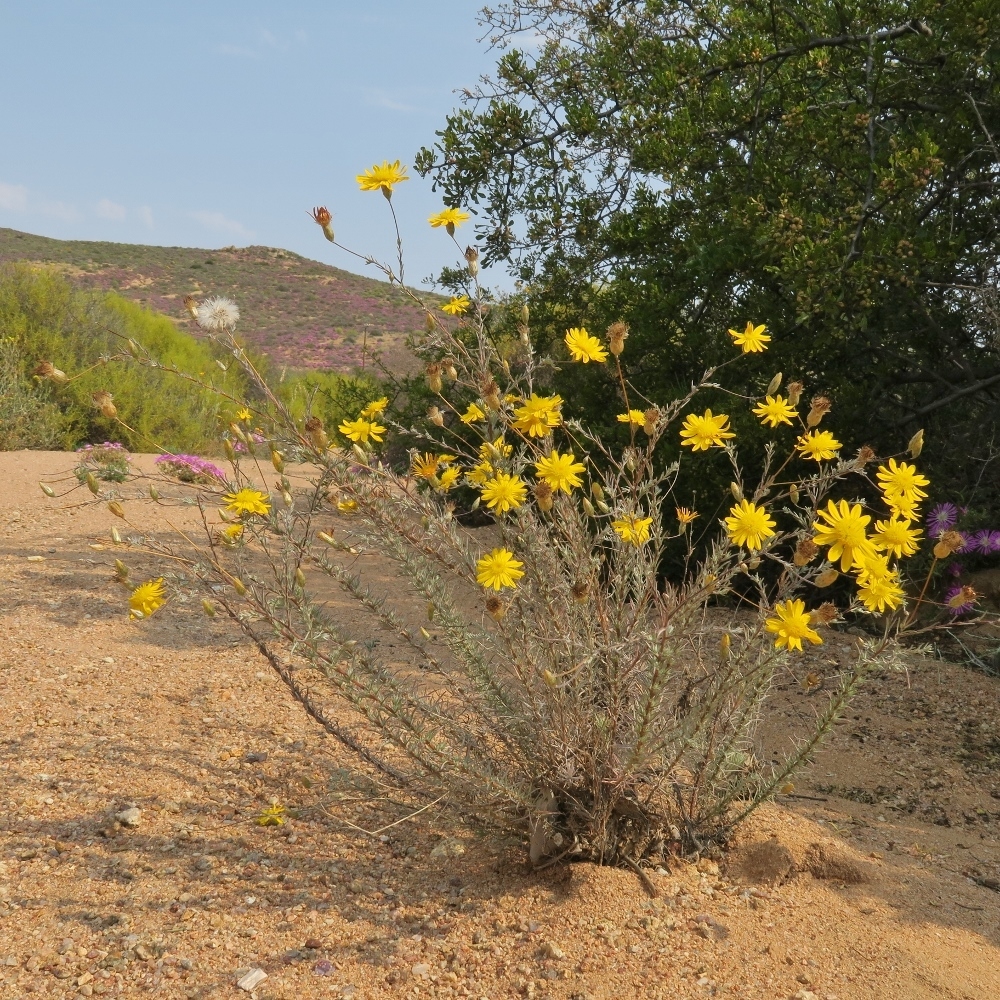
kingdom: Plantae
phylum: Tracheophyta
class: Magnoliopsida
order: Asterales
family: Asteraceae
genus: Leysera
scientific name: Leysera gnaphalodes
